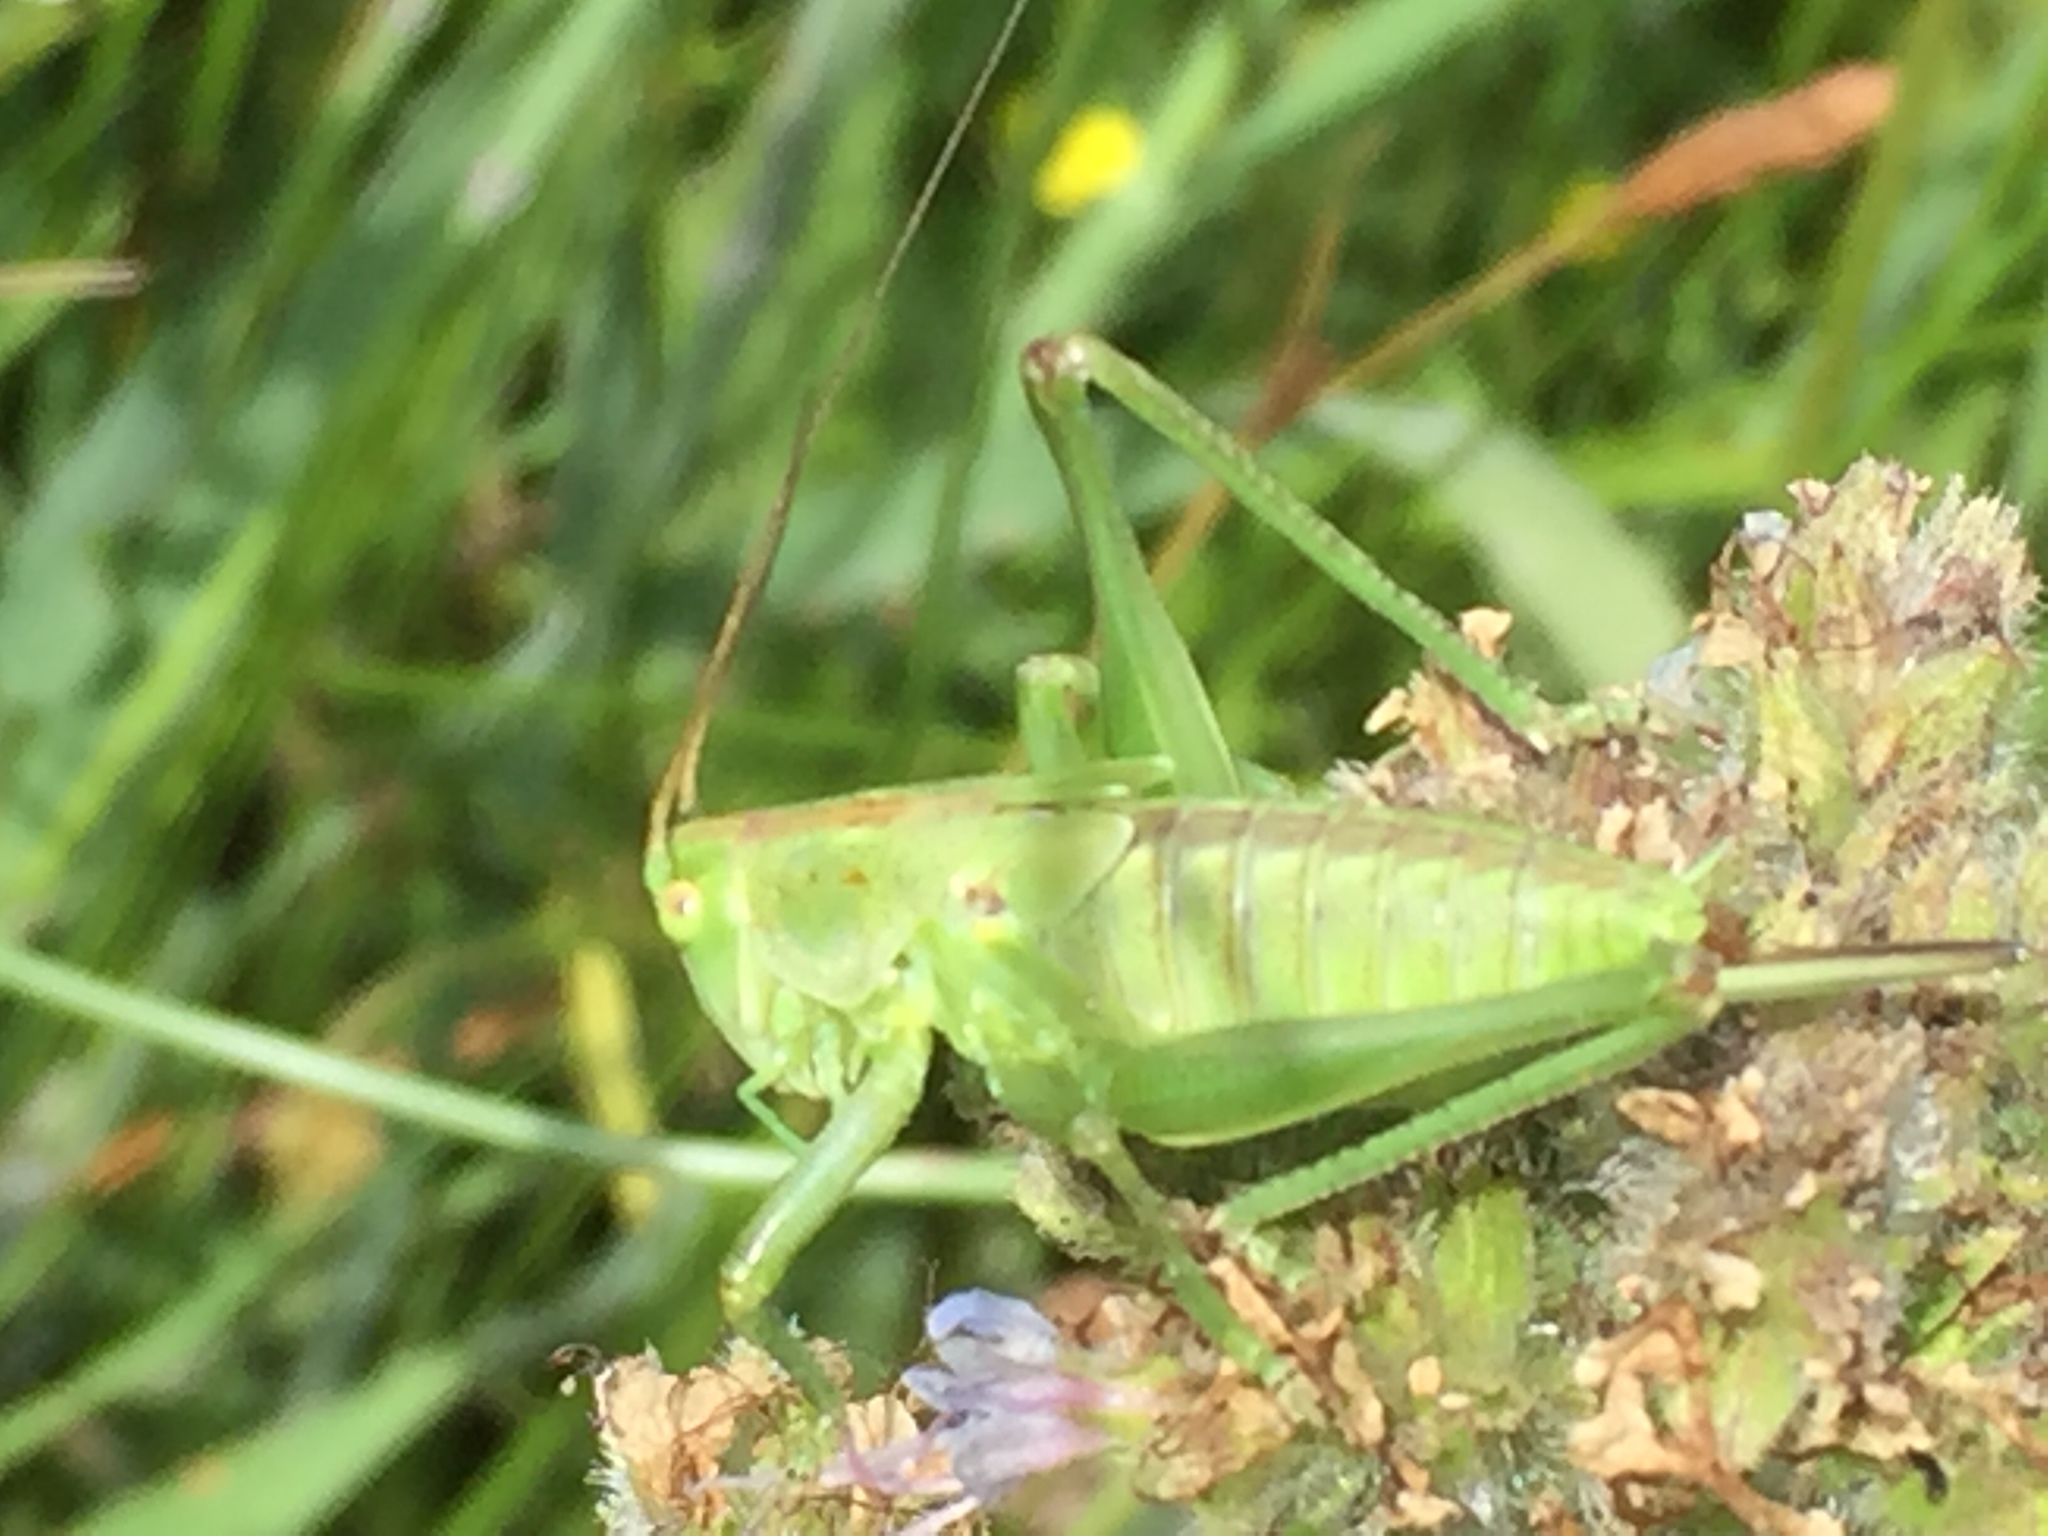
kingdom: Animalia
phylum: Arthropoda
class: Insecta
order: Orthoptera
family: Tettigoniidae
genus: Tettigonia
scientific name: Tettigonia viridissima
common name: Great green bush-cricket
